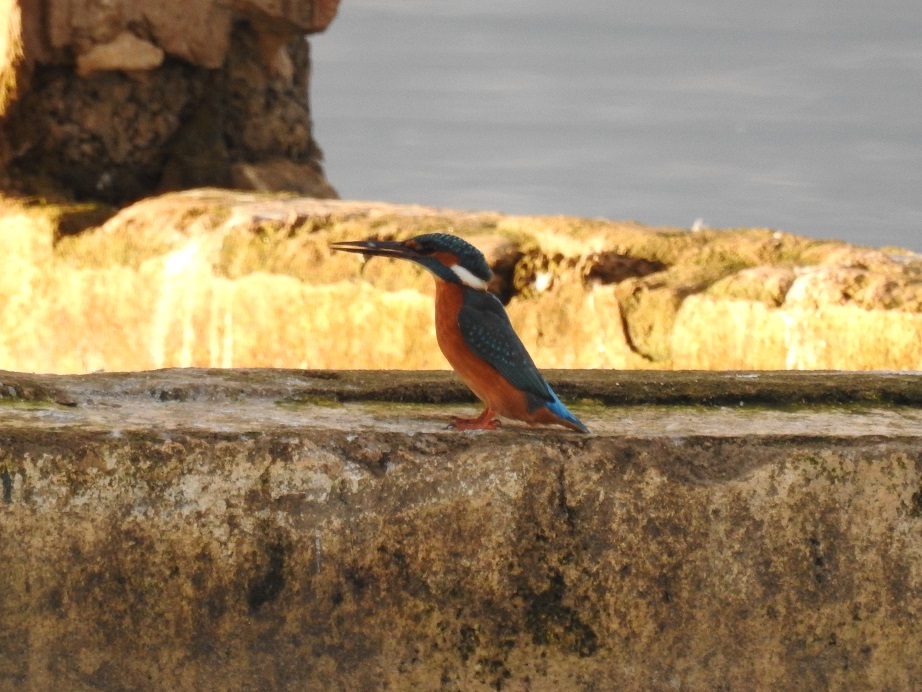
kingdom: Animalia
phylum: Chordata
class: Aves
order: Coraciiformes
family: Alcedinidae
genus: Alcedo
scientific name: Alcedo atthis
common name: Common kingfisher
